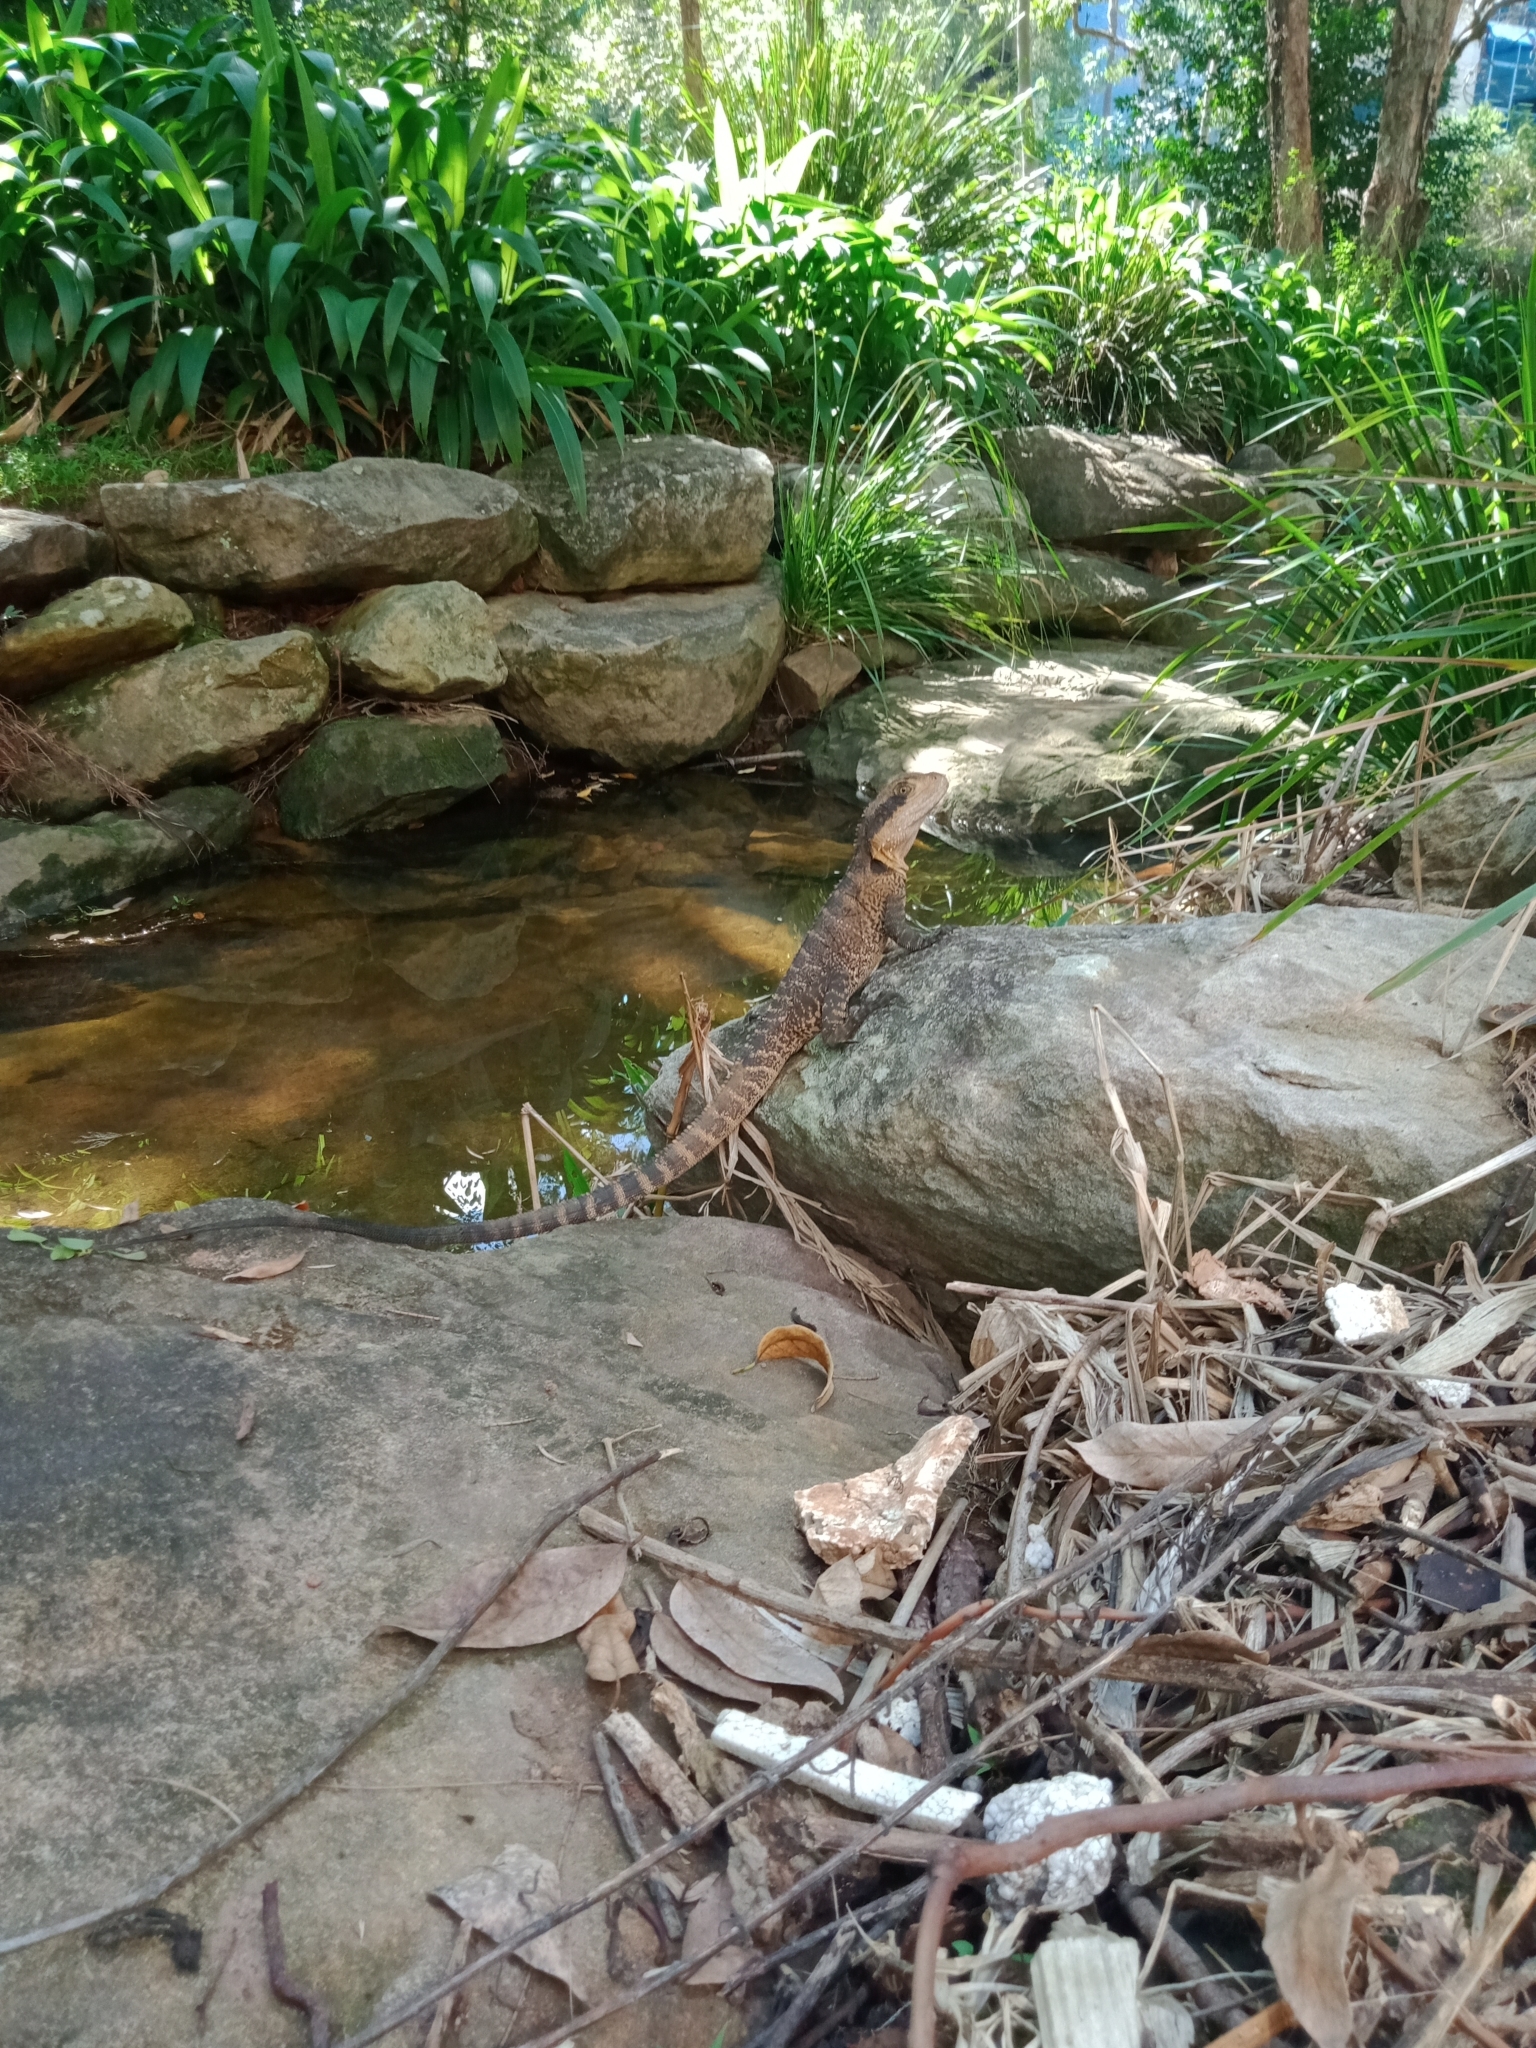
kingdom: Animalia
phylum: Chordata
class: Squamata
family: Agamidae
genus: Intellagama
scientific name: Intellagama lesueurii
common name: Eastern water dragon
